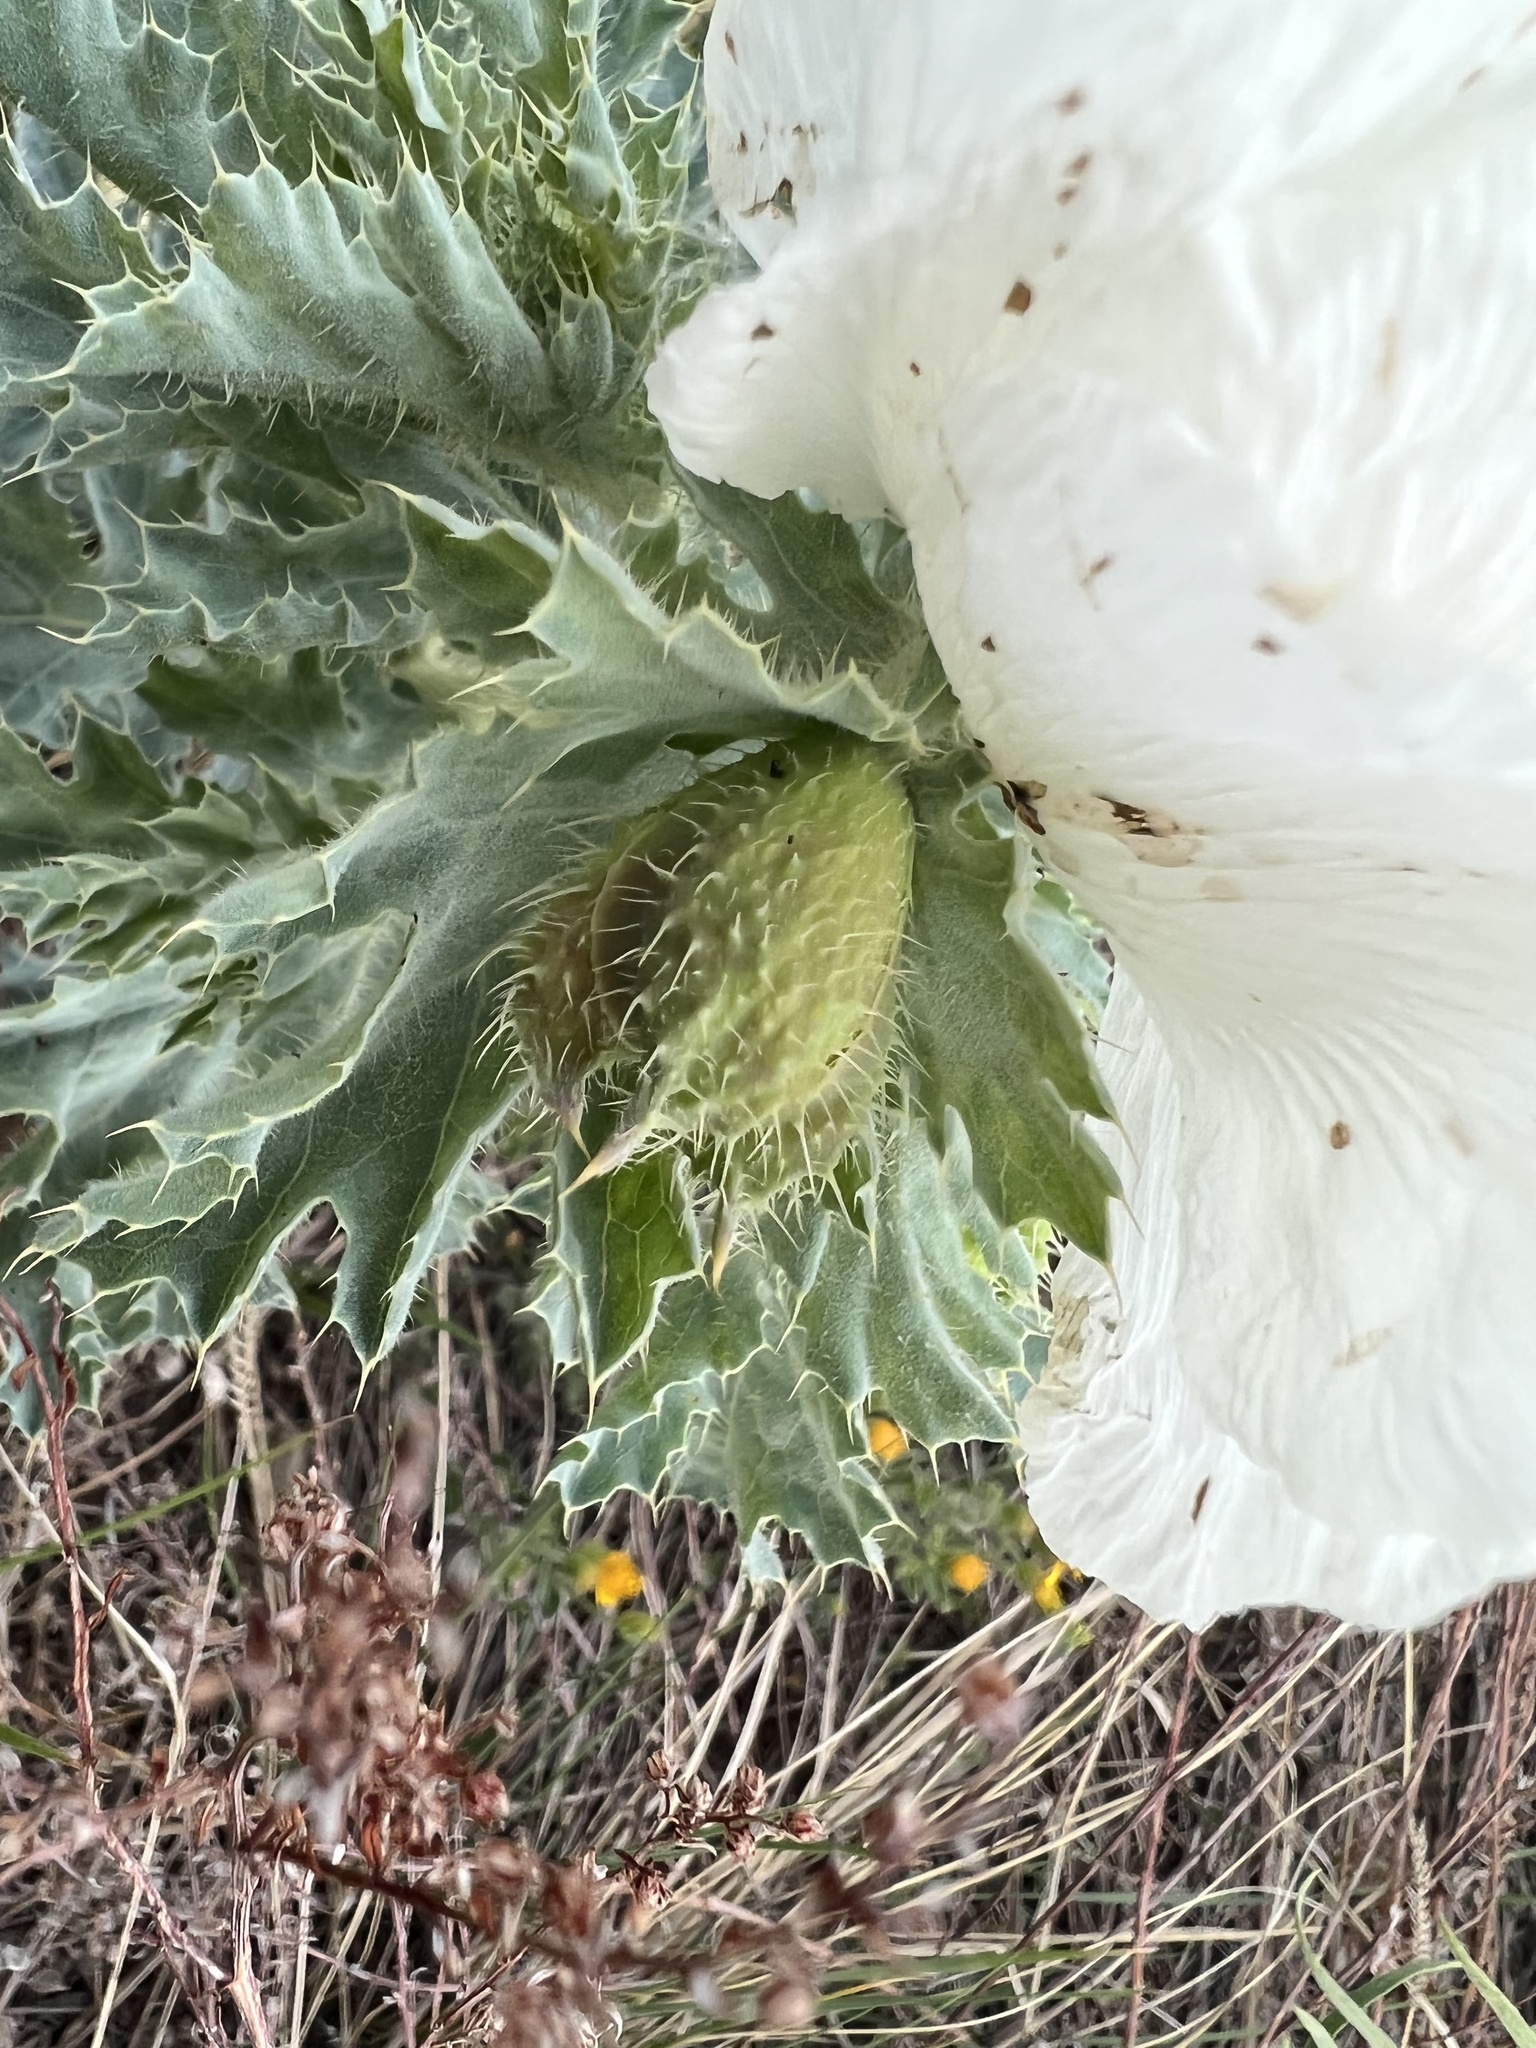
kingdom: Plantae
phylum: Tracheophyta
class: Magnoliopsida
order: Ranunculales
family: Papaveraceae
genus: Argemone
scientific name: Argemone polyanthemos
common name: Plains prickly-poppy
